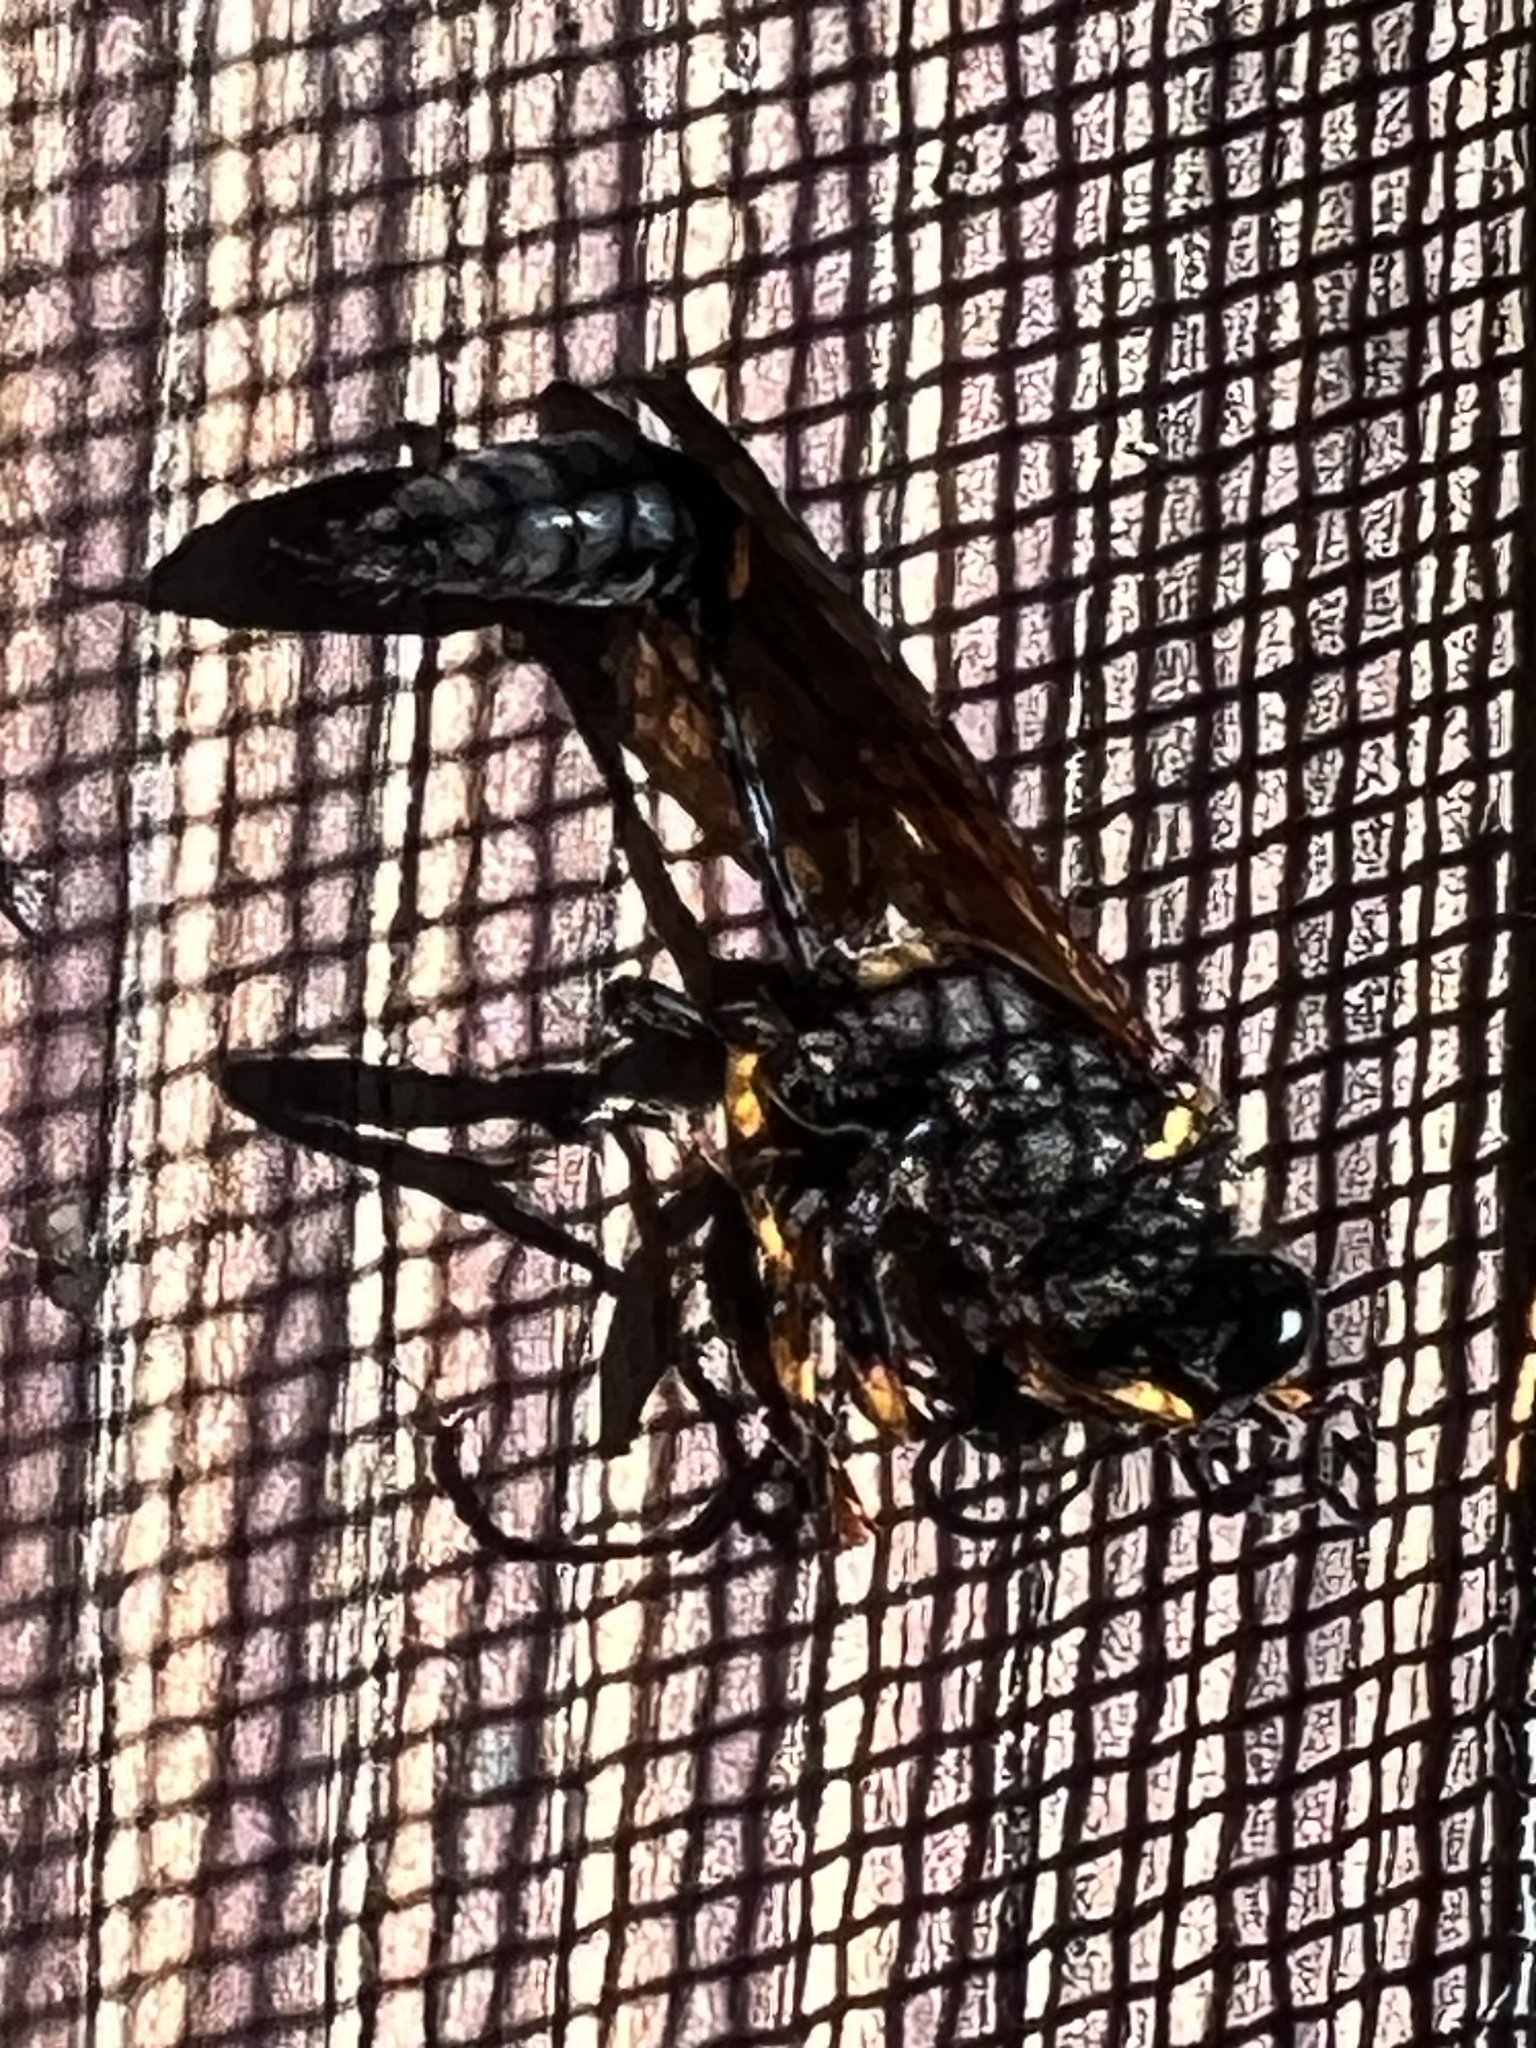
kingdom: Animalia
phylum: Arthropoda
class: Insecta
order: Hymenoptera
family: Sphecidae
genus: Sceliphron
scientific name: Sceliphron caementarium
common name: Mud dauber
